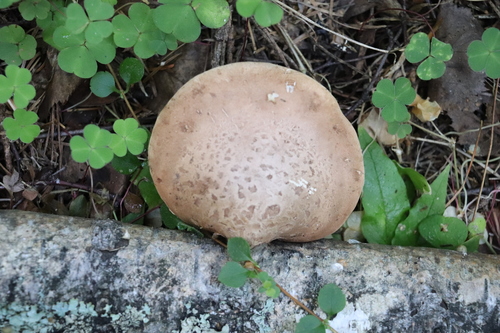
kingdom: Fungi
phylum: Basidiomycota
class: Agaricomycetes
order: Polyporales
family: Fomitopsidaceae
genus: Fomitopsis
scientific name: Fomitopsis betulina
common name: Birch polypore
